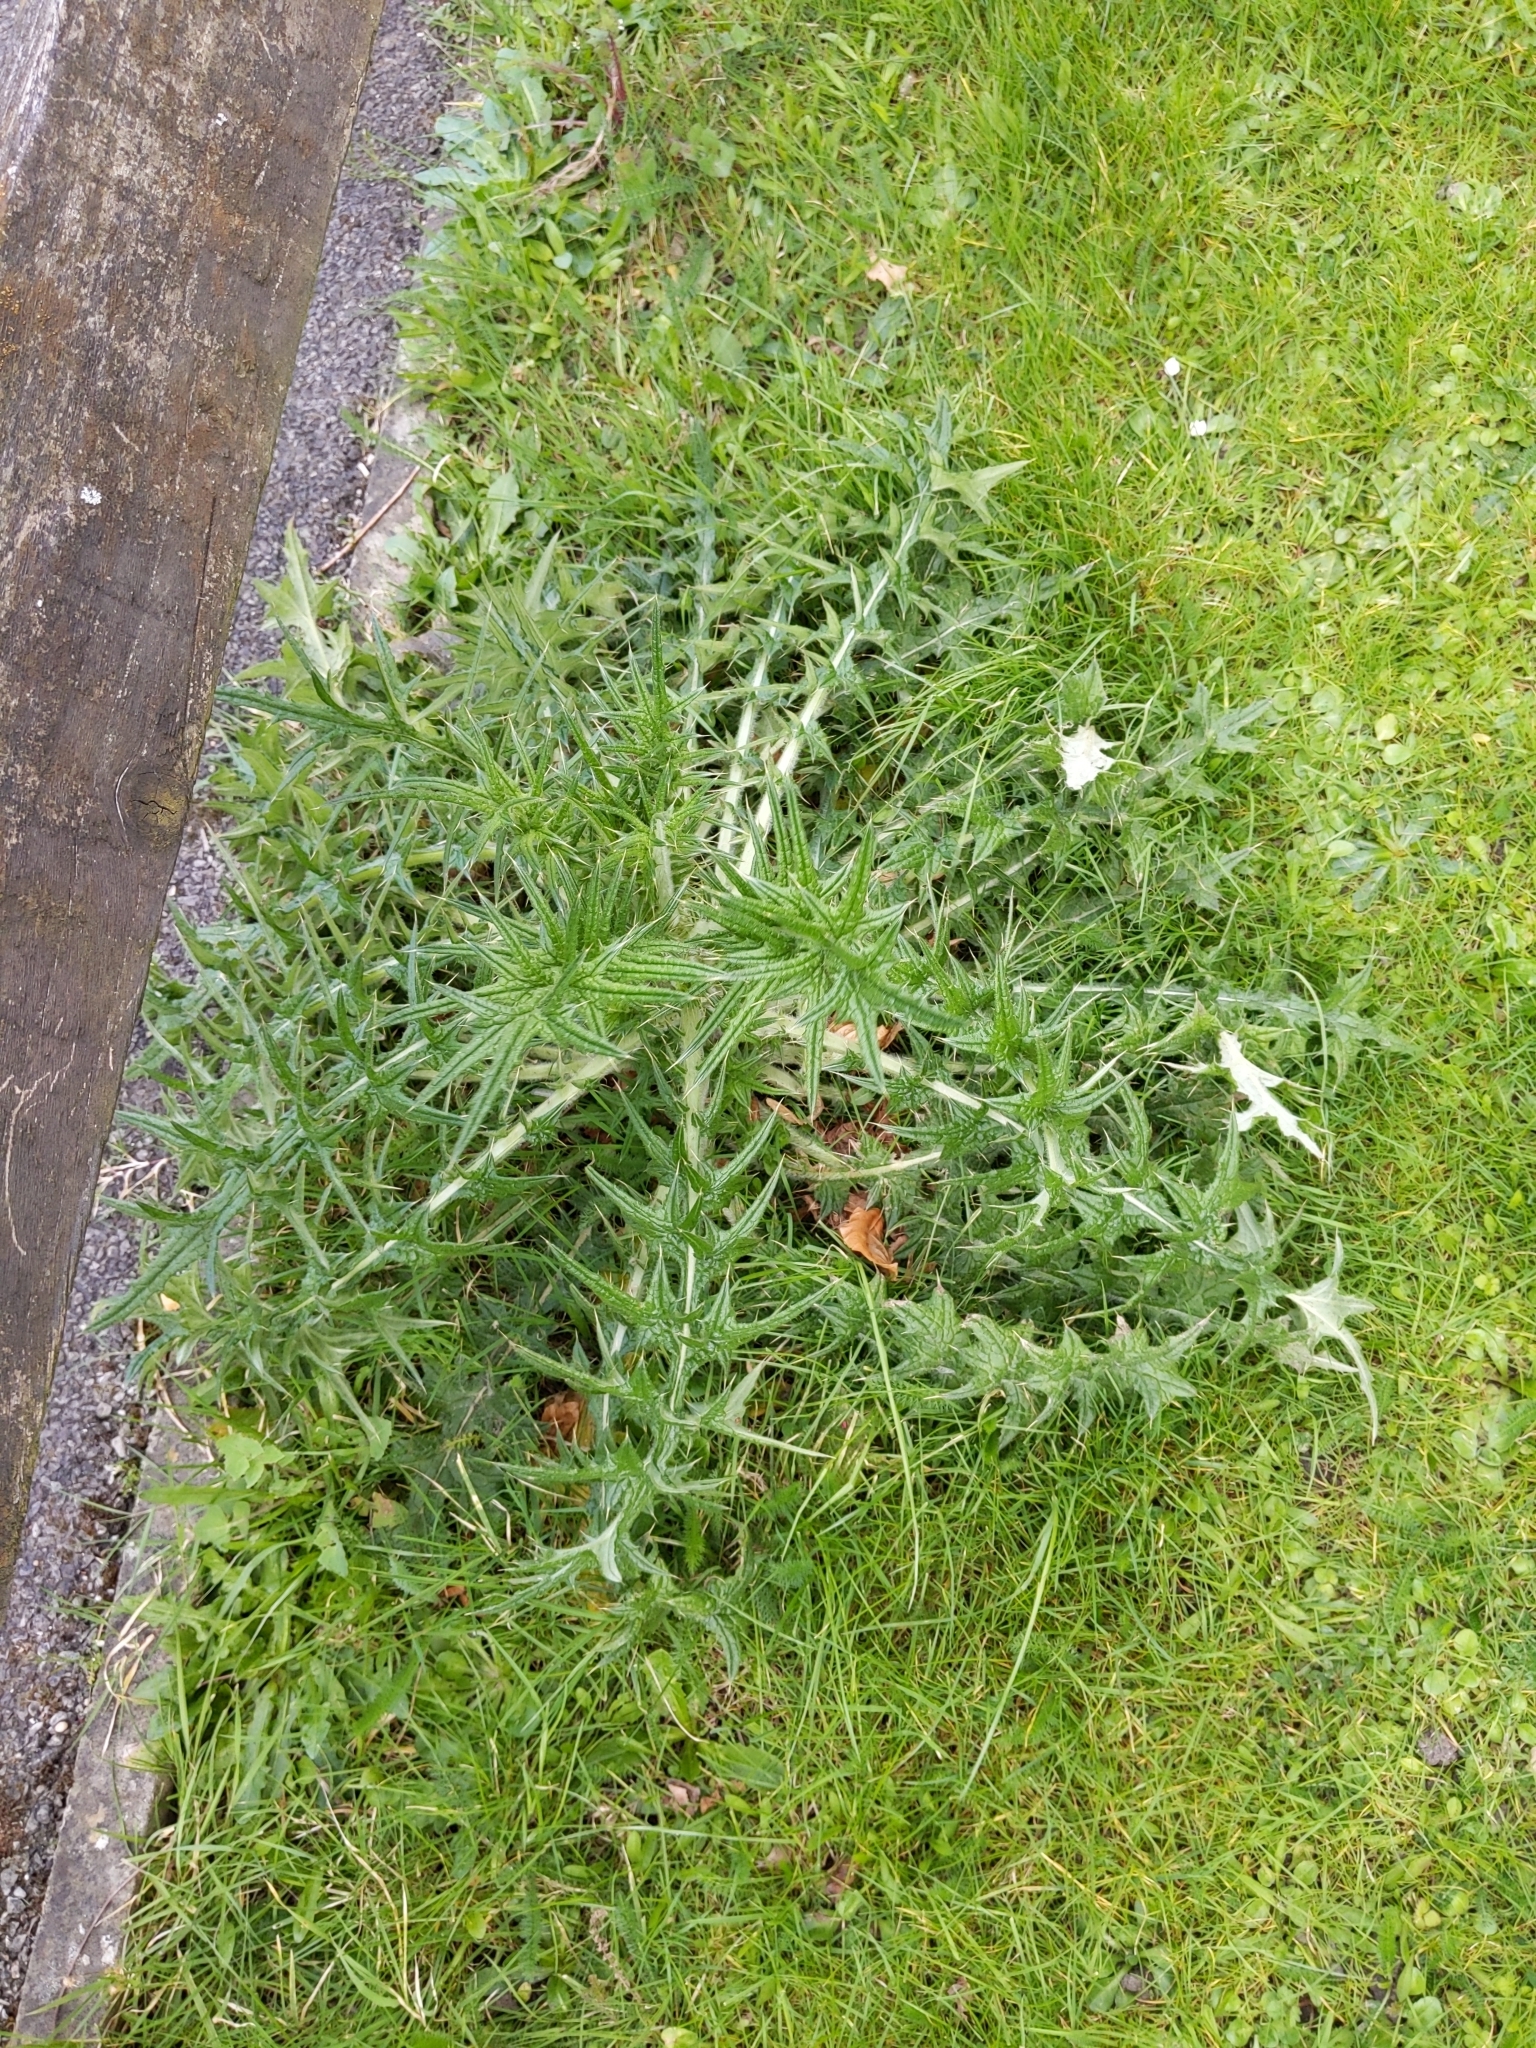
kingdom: Plantae
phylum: Tracheophyta
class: Magnoliopsida
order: Asterales
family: Asteraceae
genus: Cirsium
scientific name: Cirsium vulgare
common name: Bull thistle
